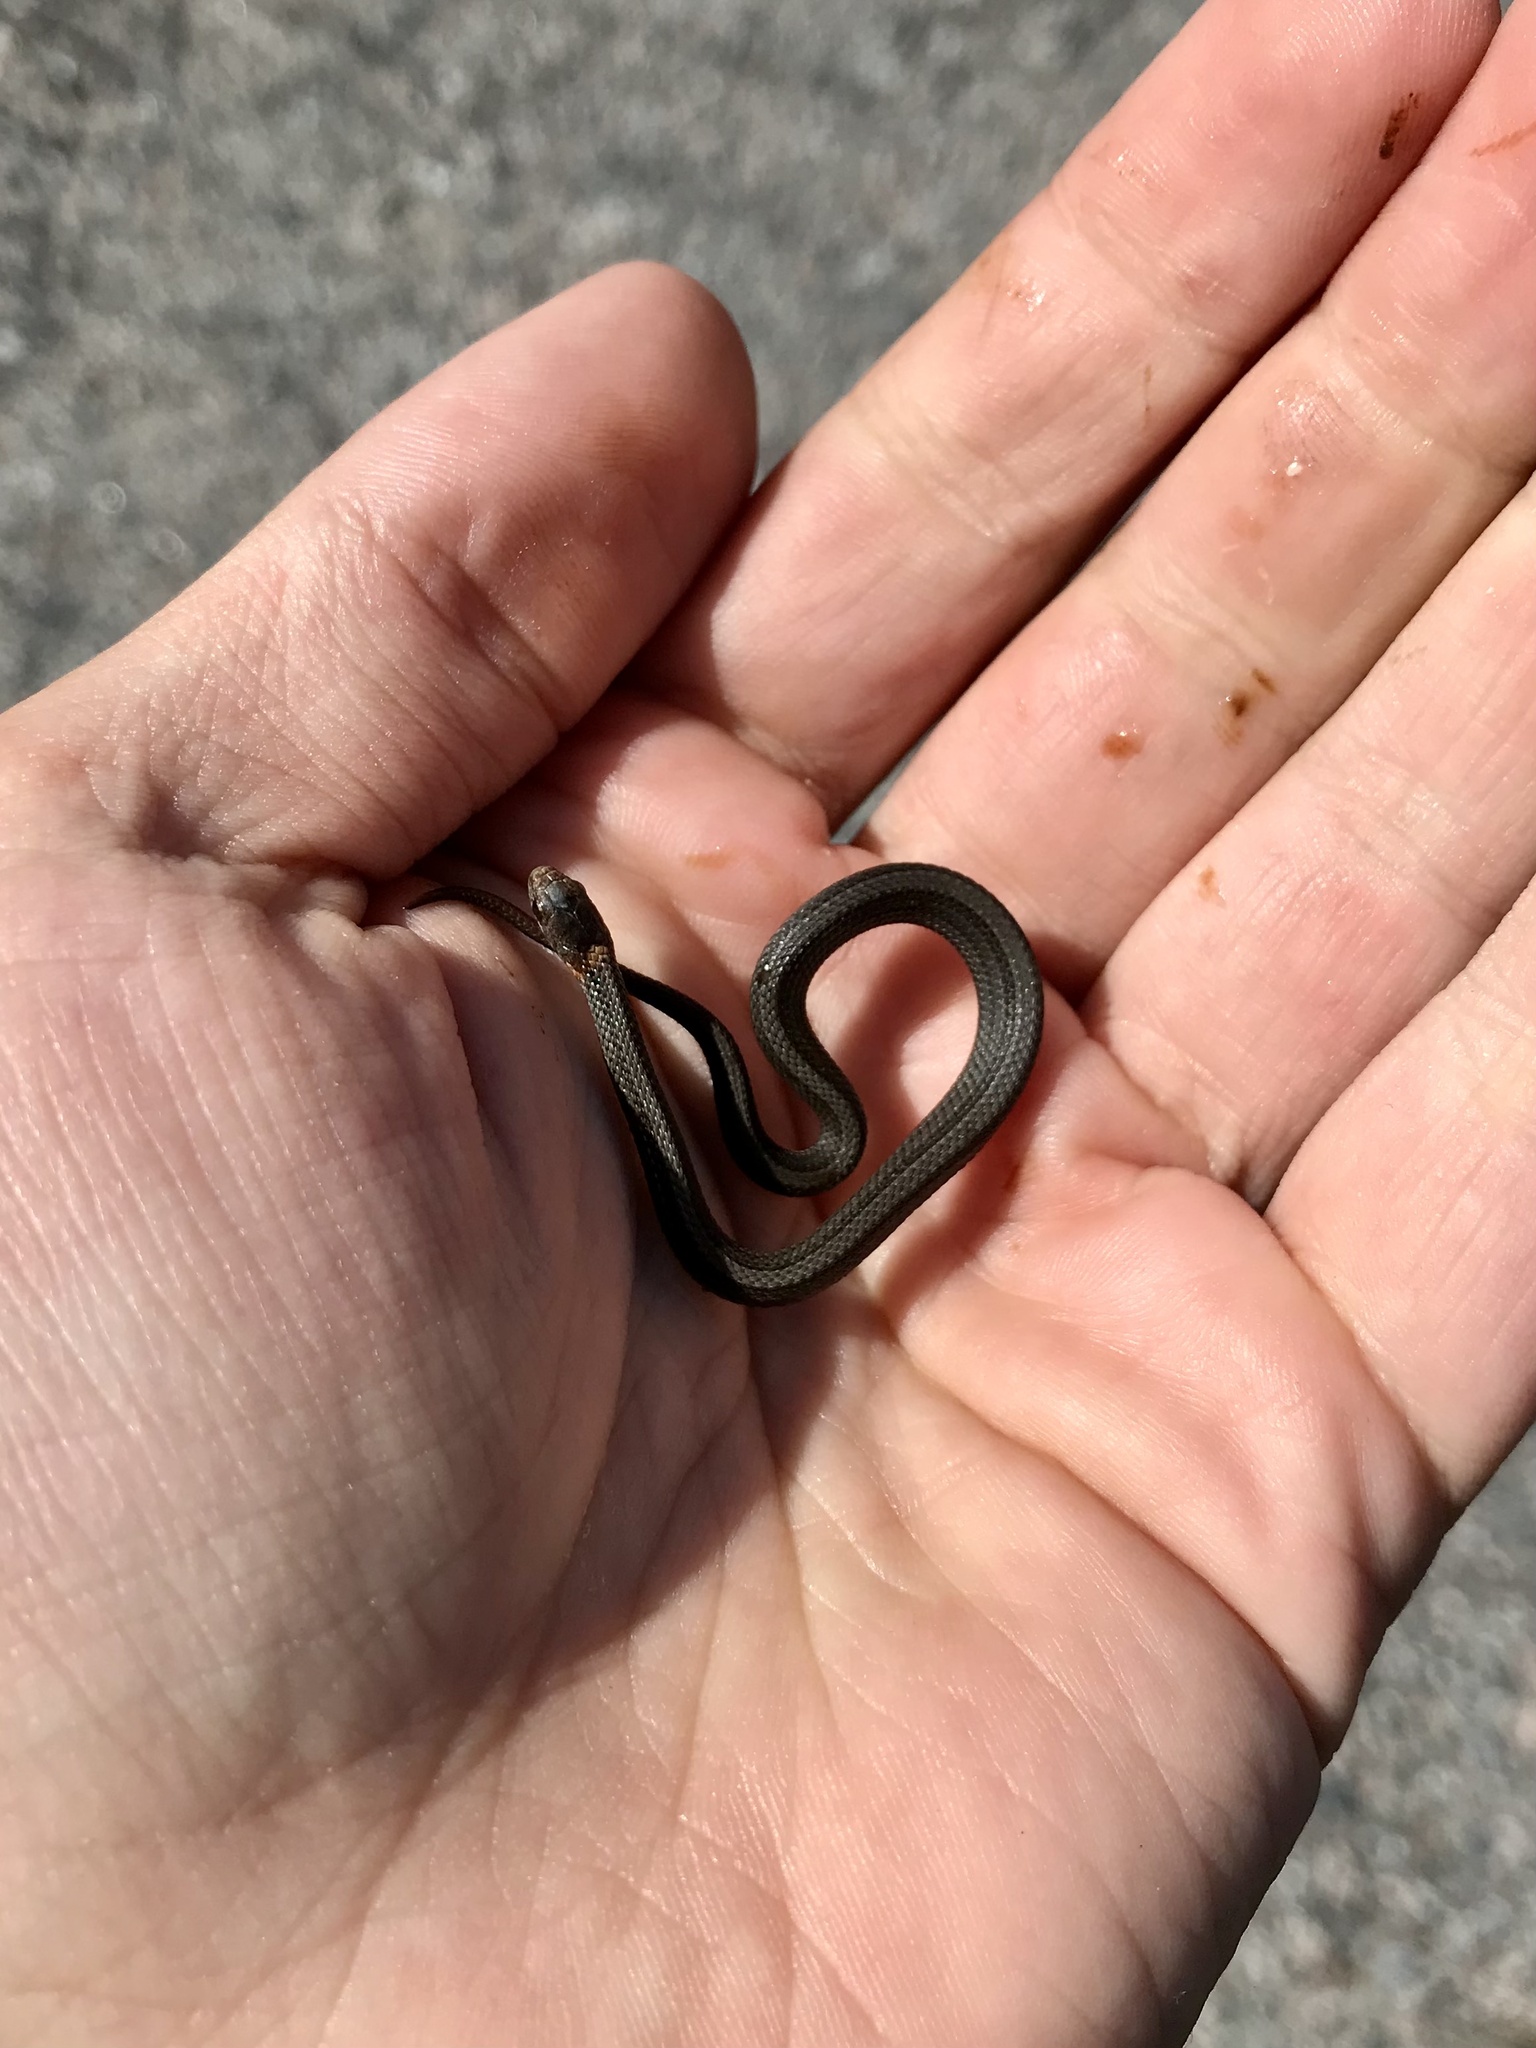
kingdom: Animalia
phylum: Chordata
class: Squamata
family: Colubridae
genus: Storeria
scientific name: Storeria occipitomaculata
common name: Redbelly snake
